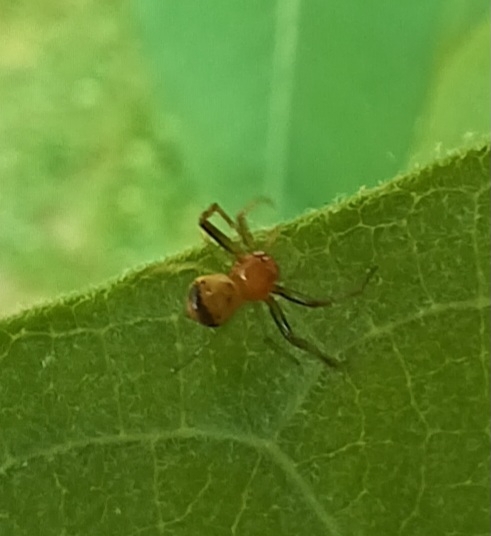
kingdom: Animalia
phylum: Arthropoda
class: Arachnida
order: Araneae
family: Thomisidae
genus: Synema
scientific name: Synema parvulum
